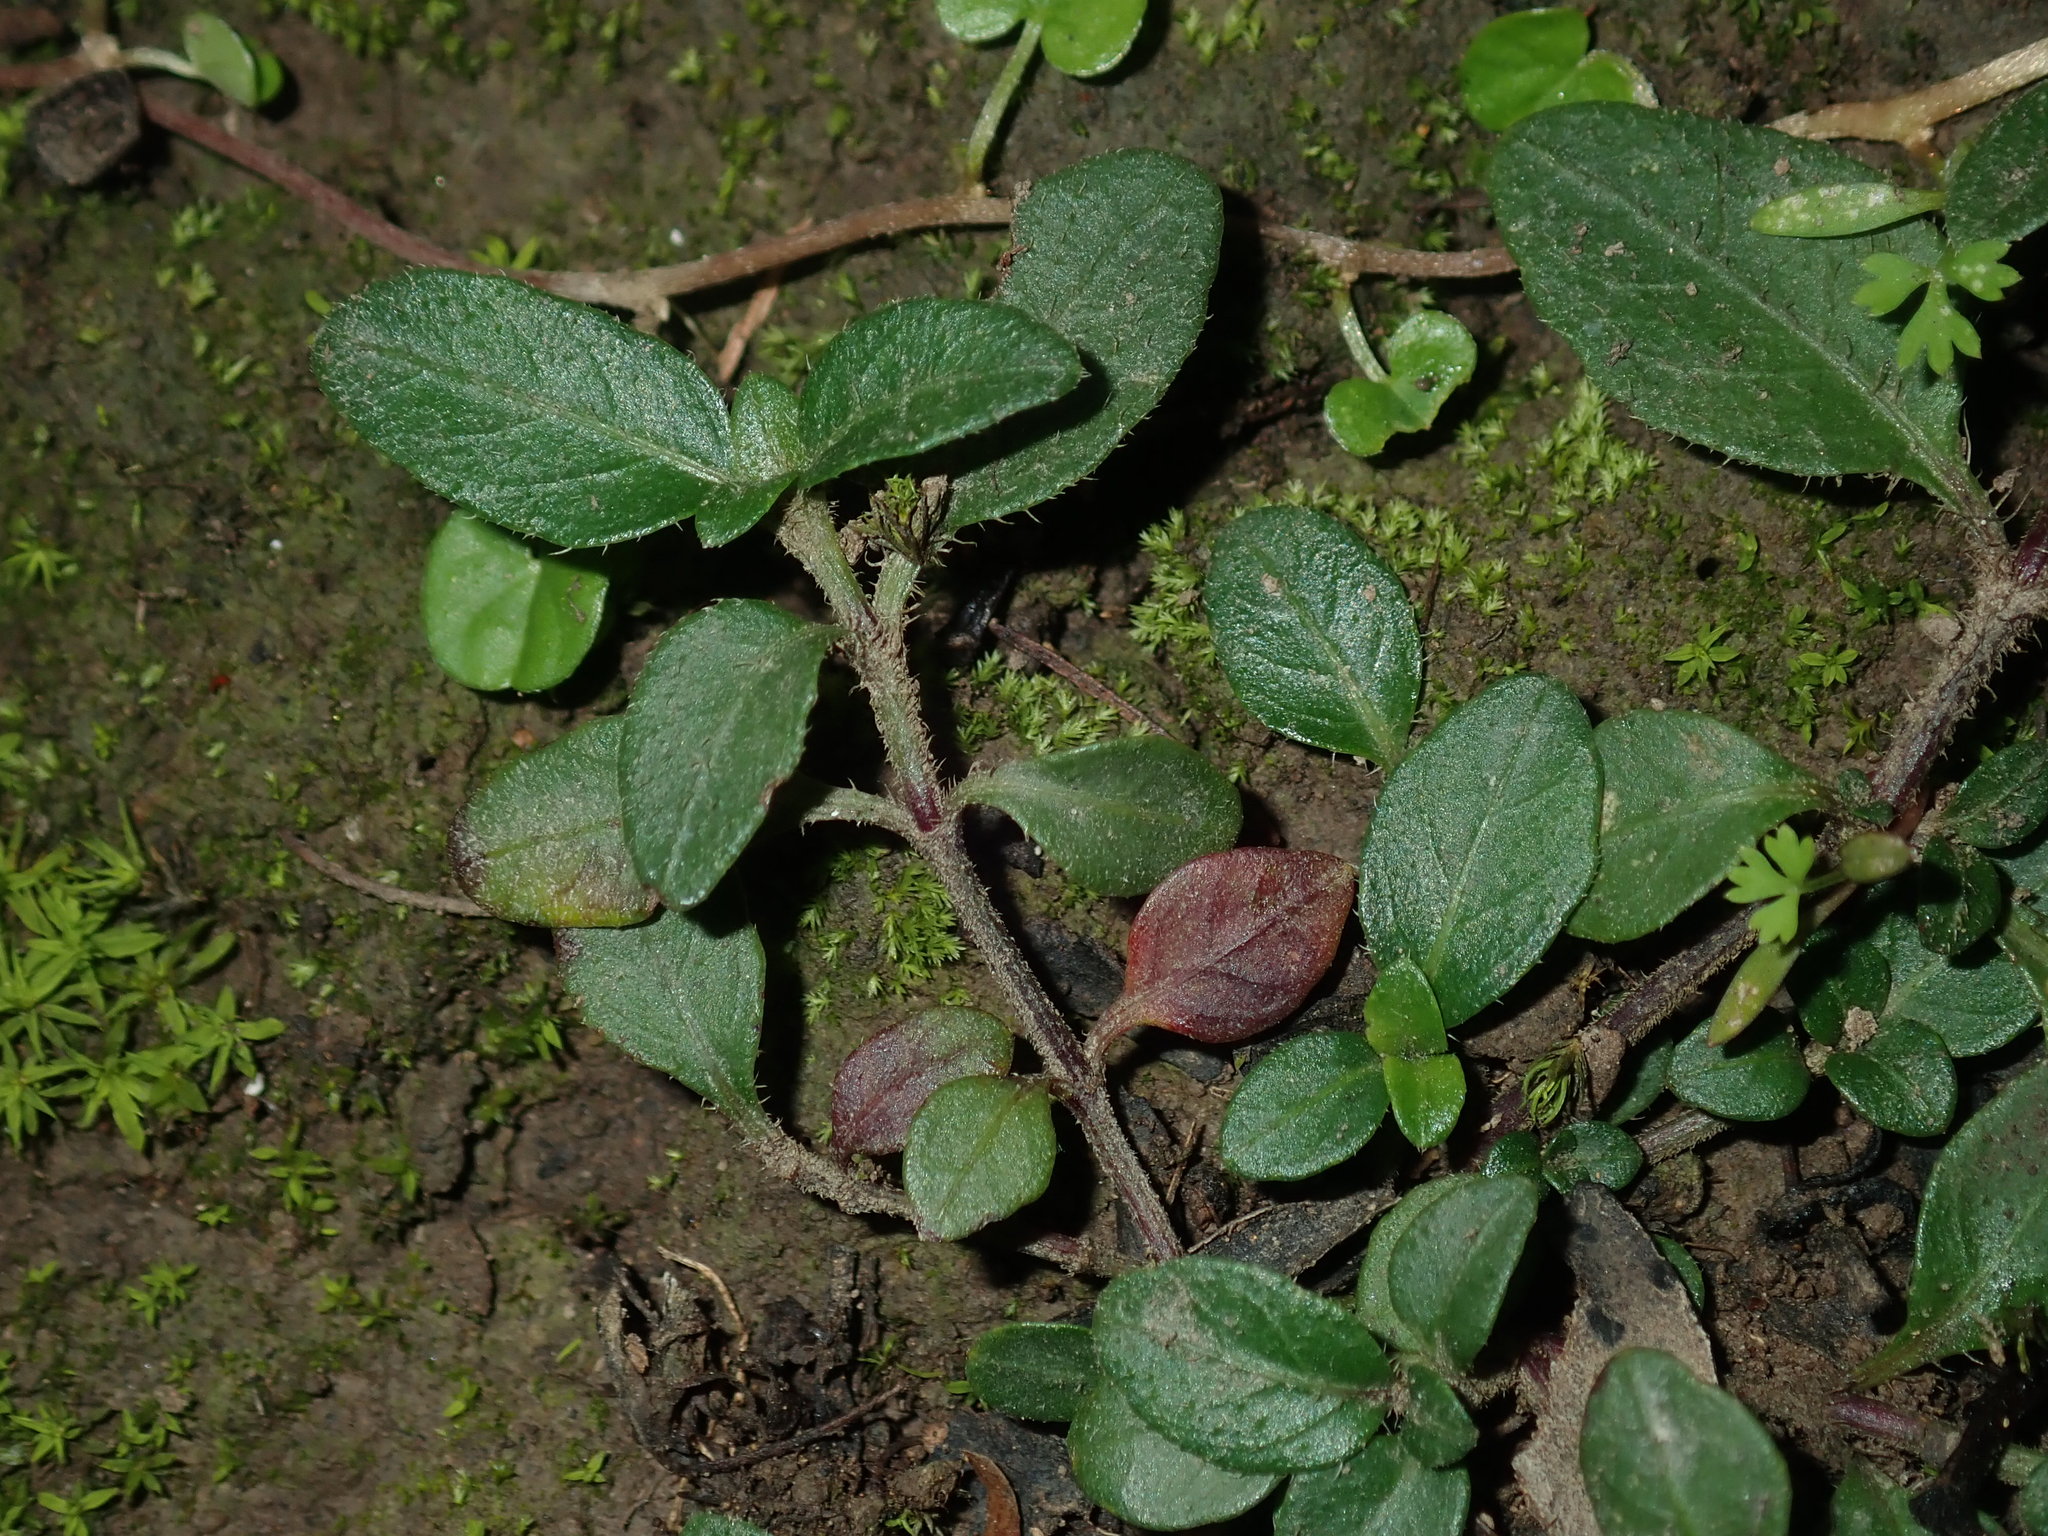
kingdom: Plantae
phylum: Tracheophyta
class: Magnoliopsida
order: Lamiales
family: Acanthaceae
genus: Brunoniella
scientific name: Brunoniella australis
